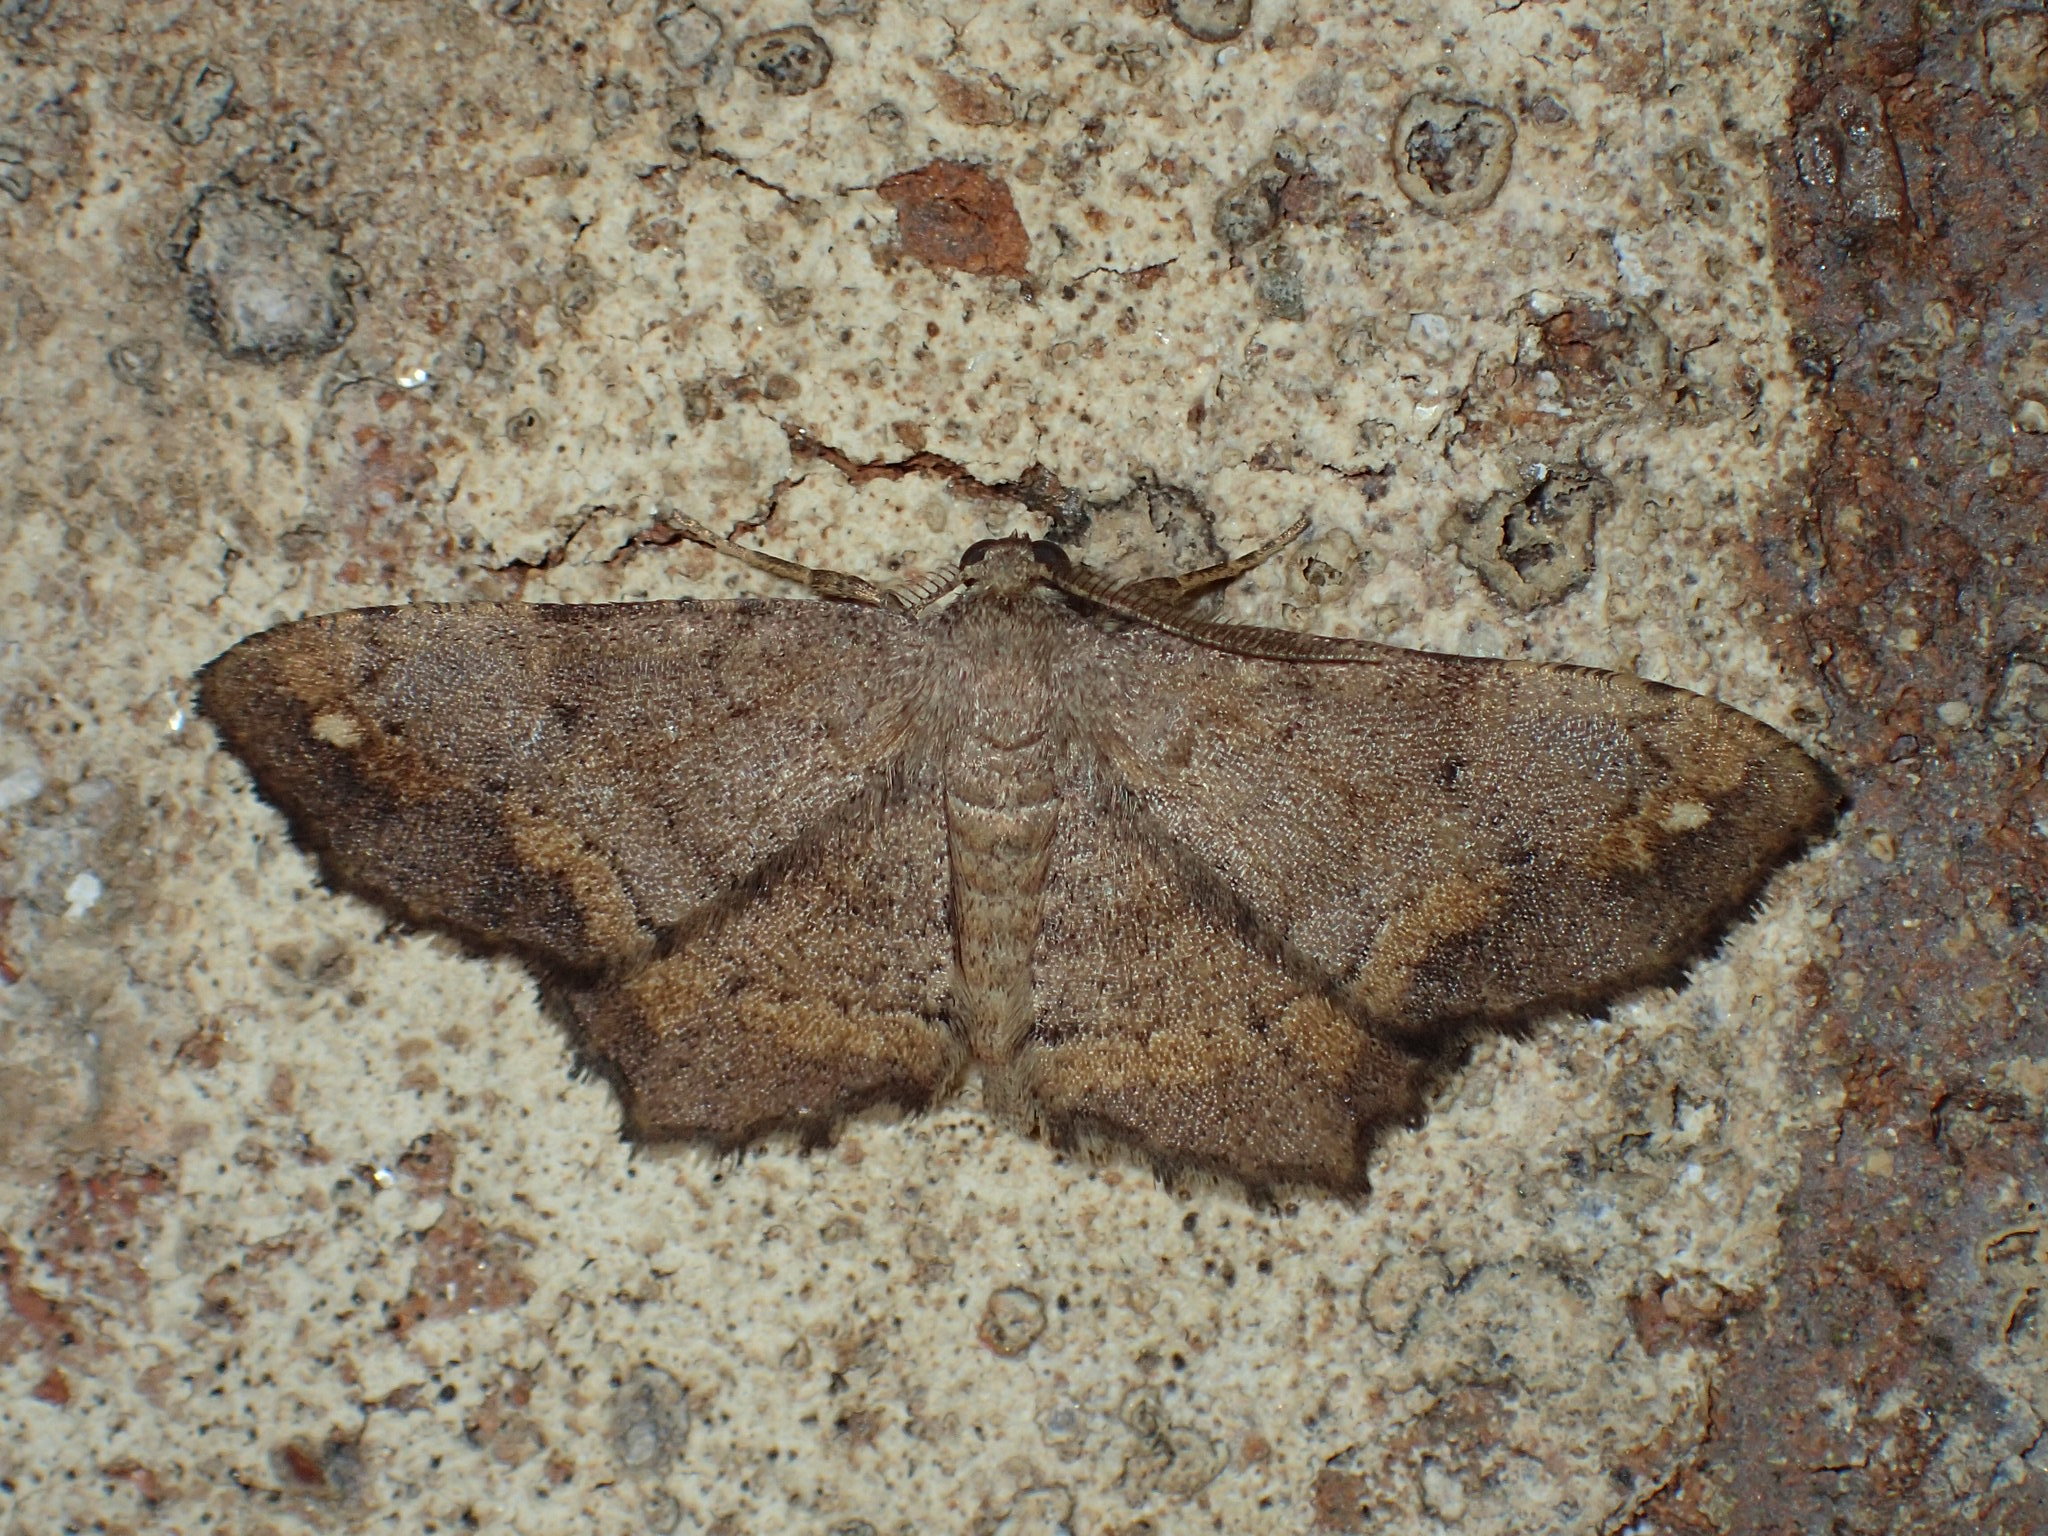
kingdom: Animalia
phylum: Arthropoda
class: Insecta
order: Lepidoptera
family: Geometridae
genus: Hypagyrtis
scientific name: Hypagyrtis esther
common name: Esther moth
